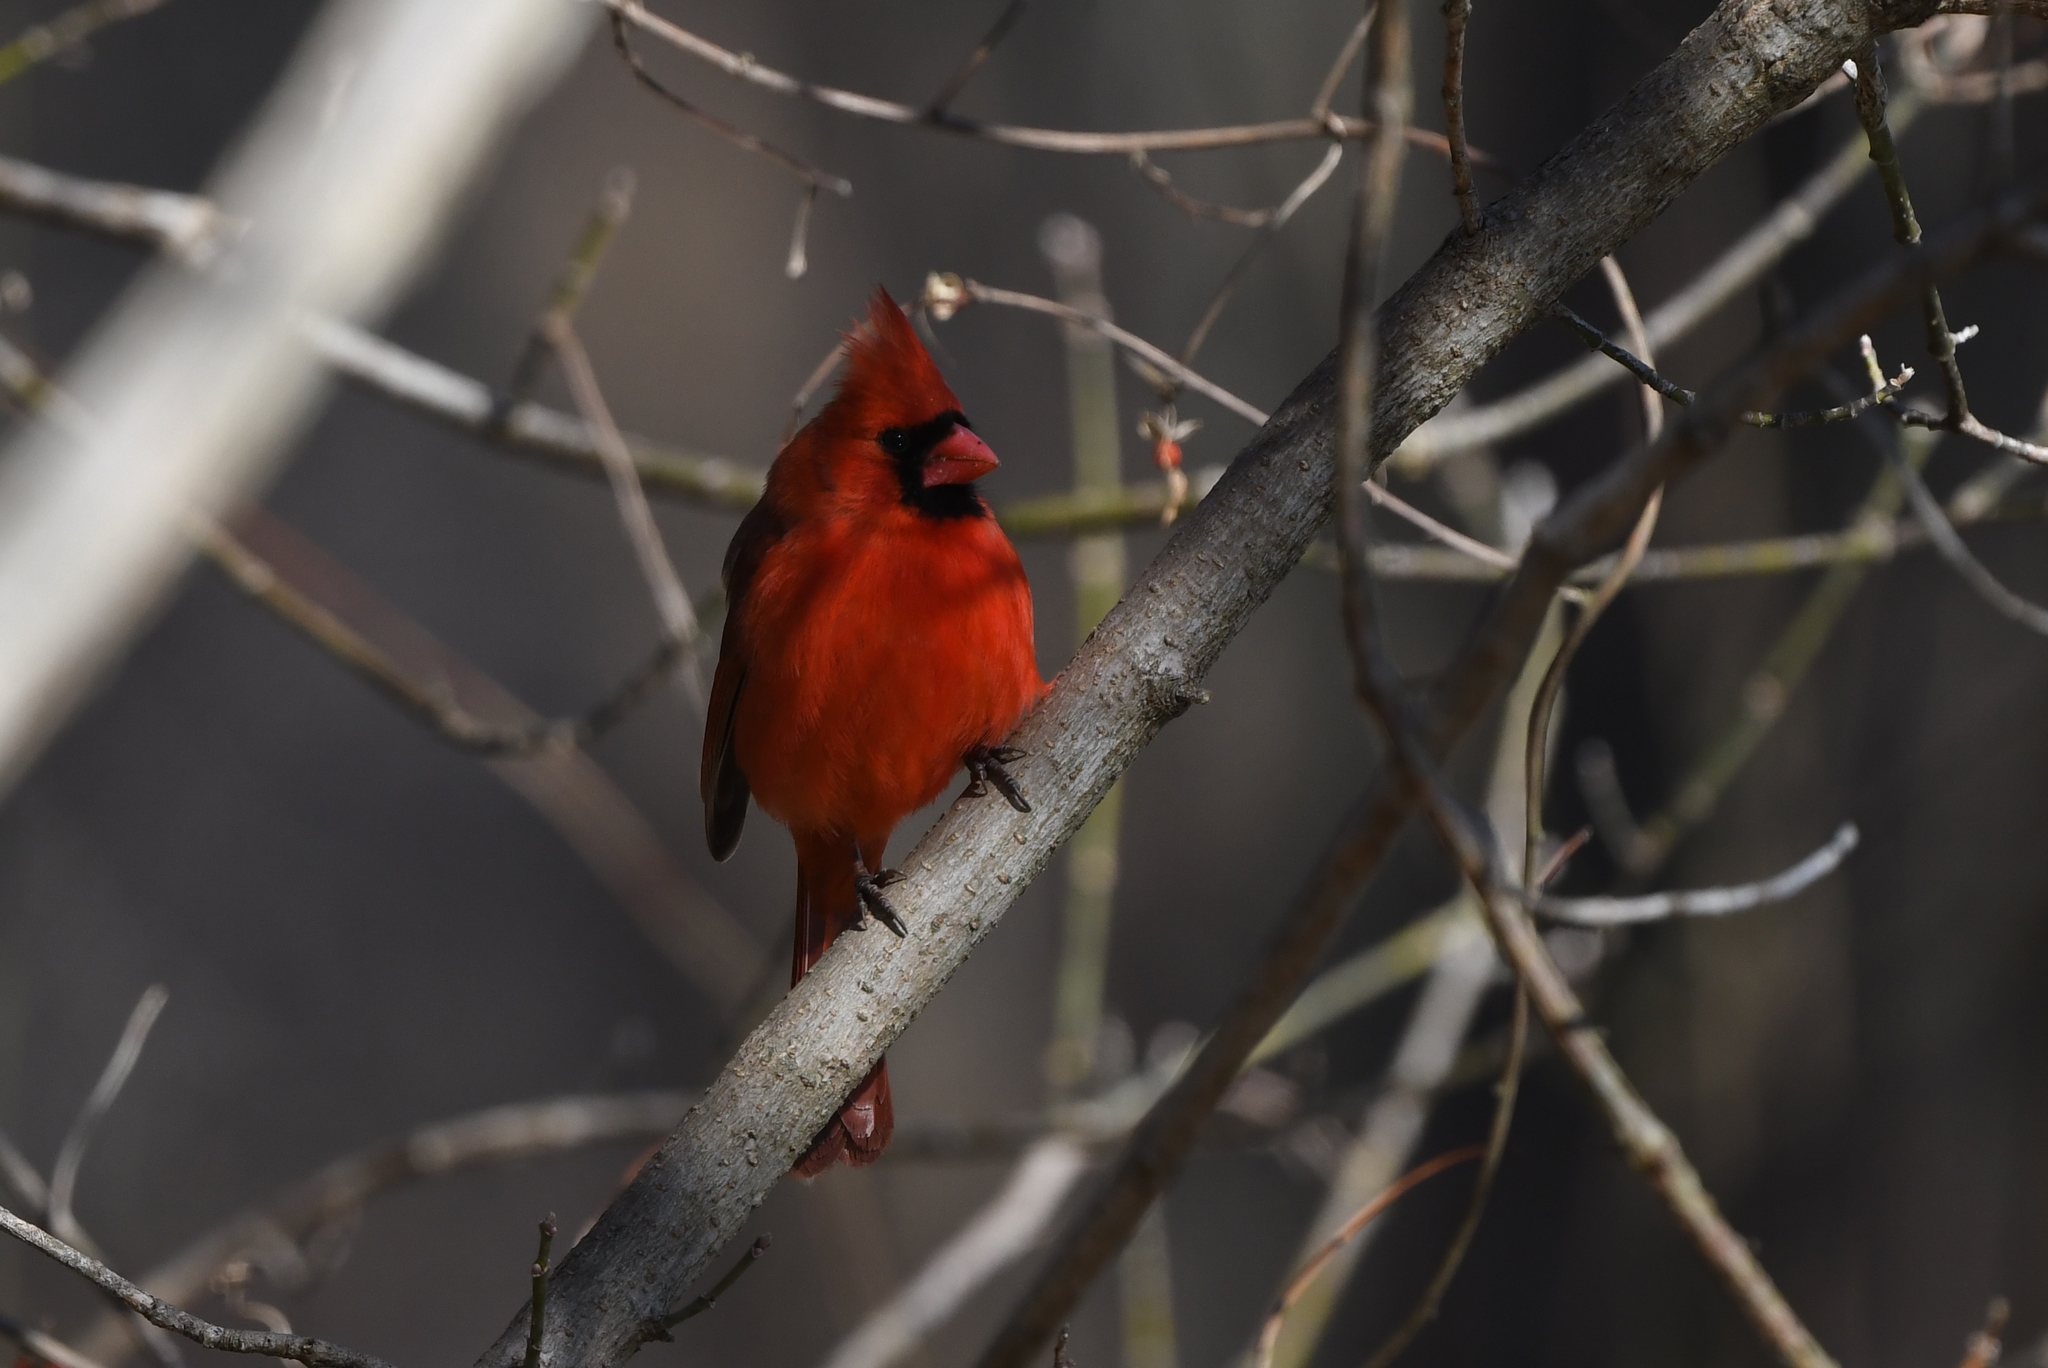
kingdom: Animalia
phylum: Chordata
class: Aves
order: Passeriformes
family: Cardinalidae
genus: Cardinalis
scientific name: Cardinalis cardinalis
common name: Northern cardinal
